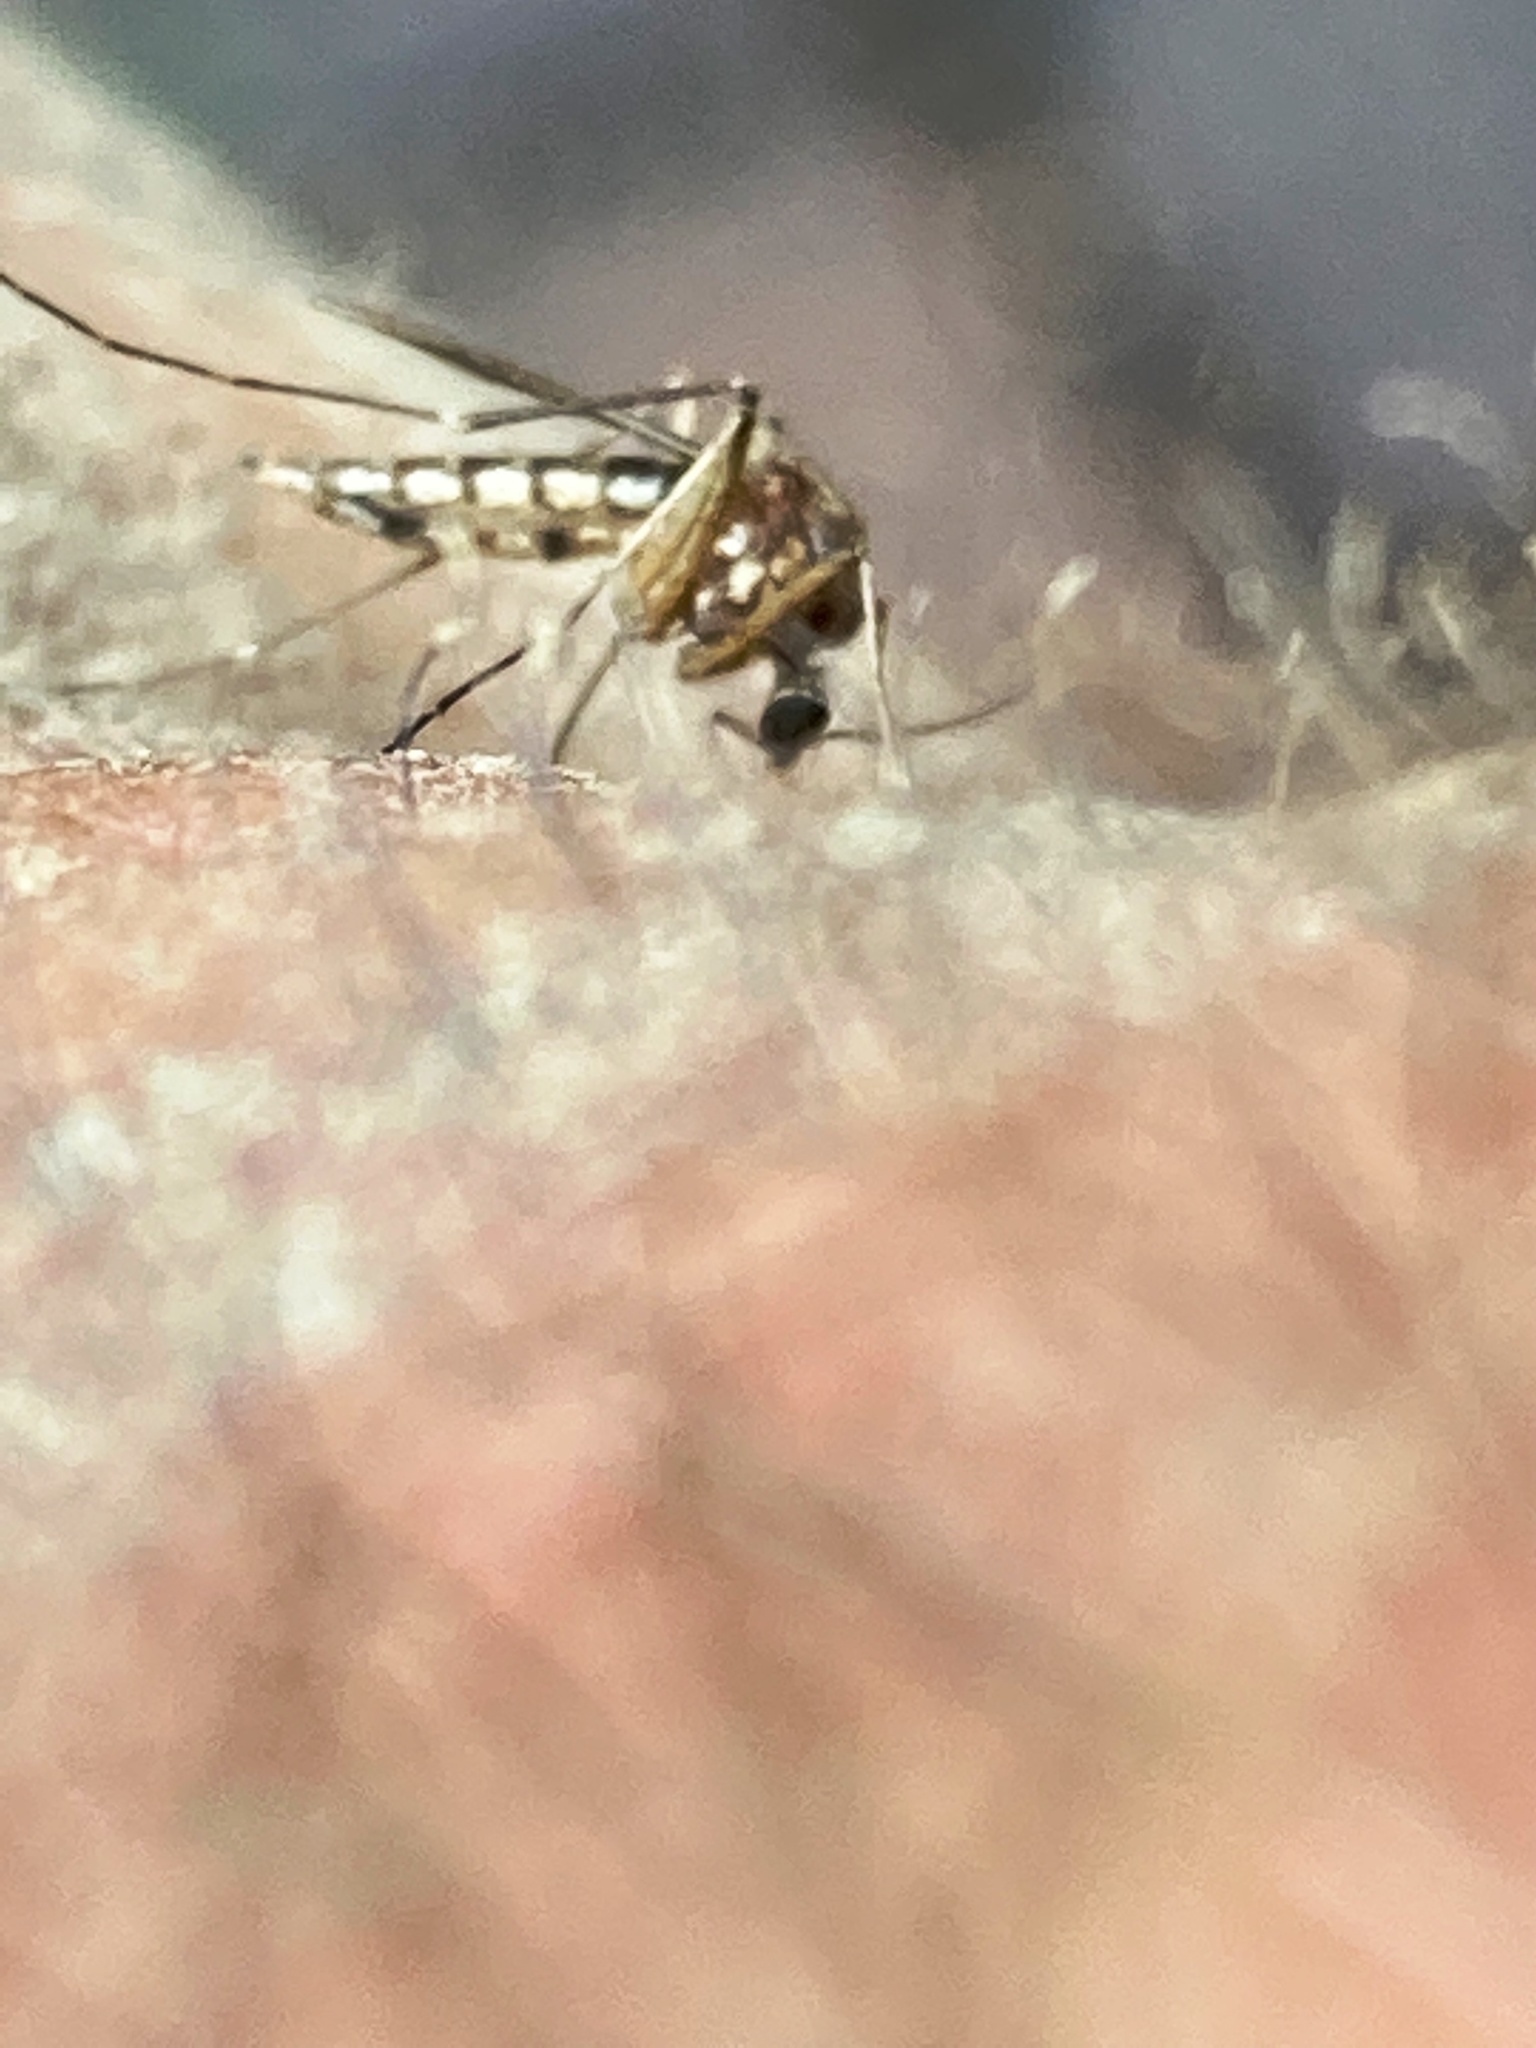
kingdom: Animalia
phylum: Arthropoda
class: Insecta
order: Diptera
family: Culicidae
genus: Aedes
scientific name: Aedes vexans
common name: Inland floodwater mosquito
